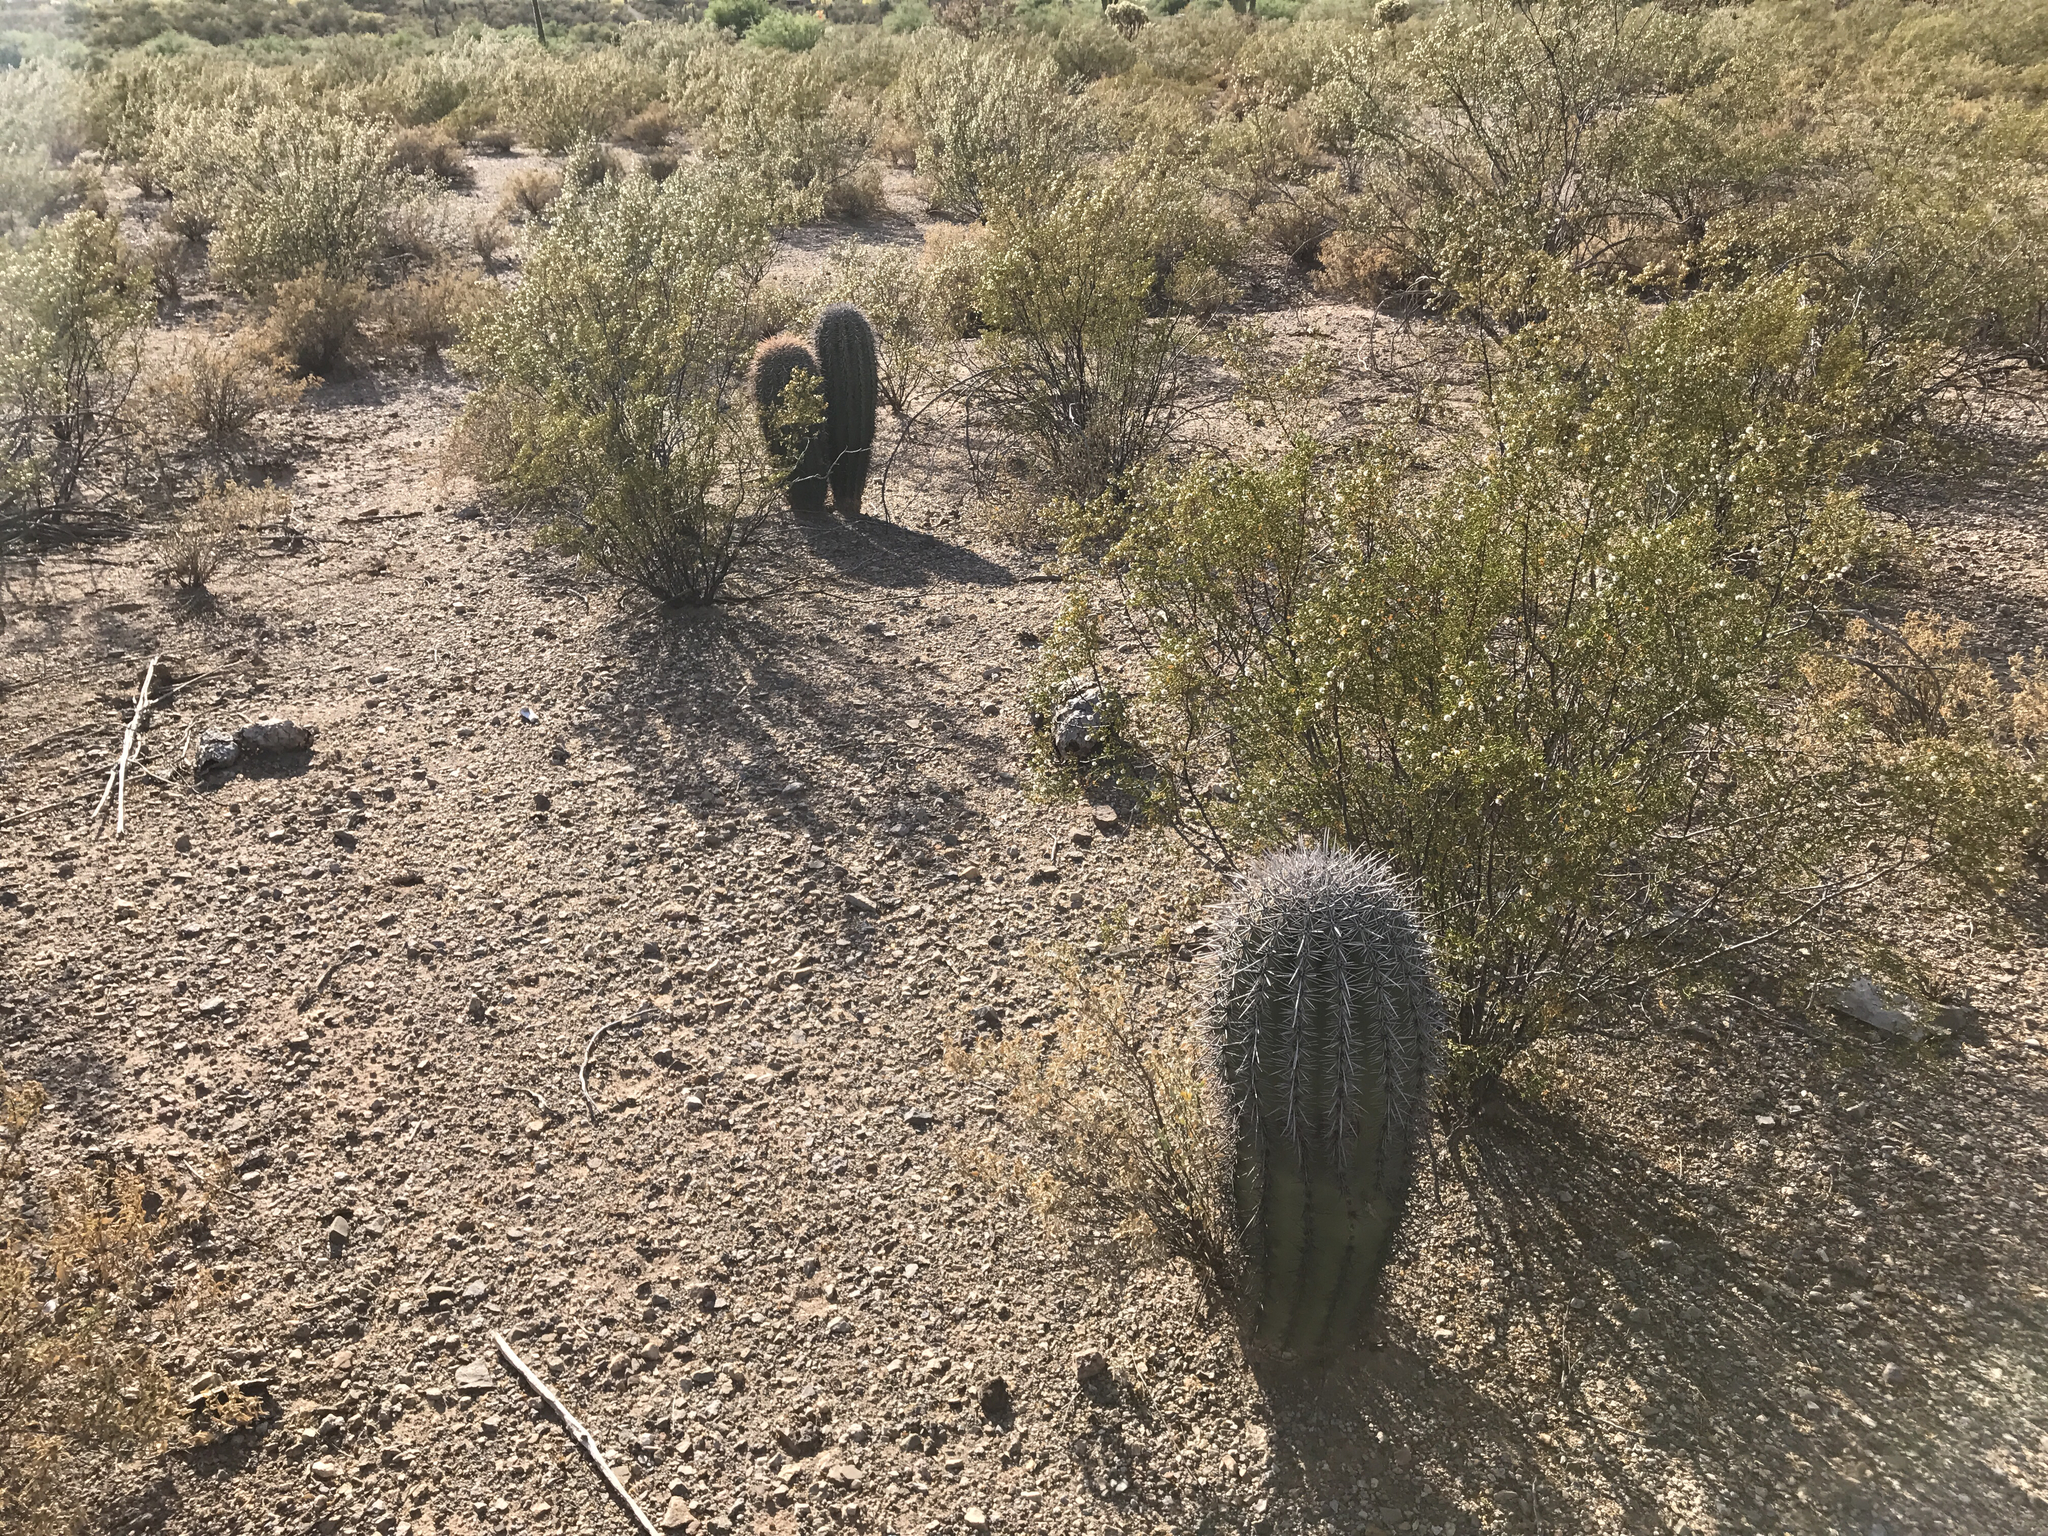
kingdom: Plantae
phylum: Tracheophyta
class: Magnoliopsida
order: Caryophyllales
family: Cactaceae
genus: Carnegiea
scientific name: Carnegiea gigantea
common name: Saguaro
